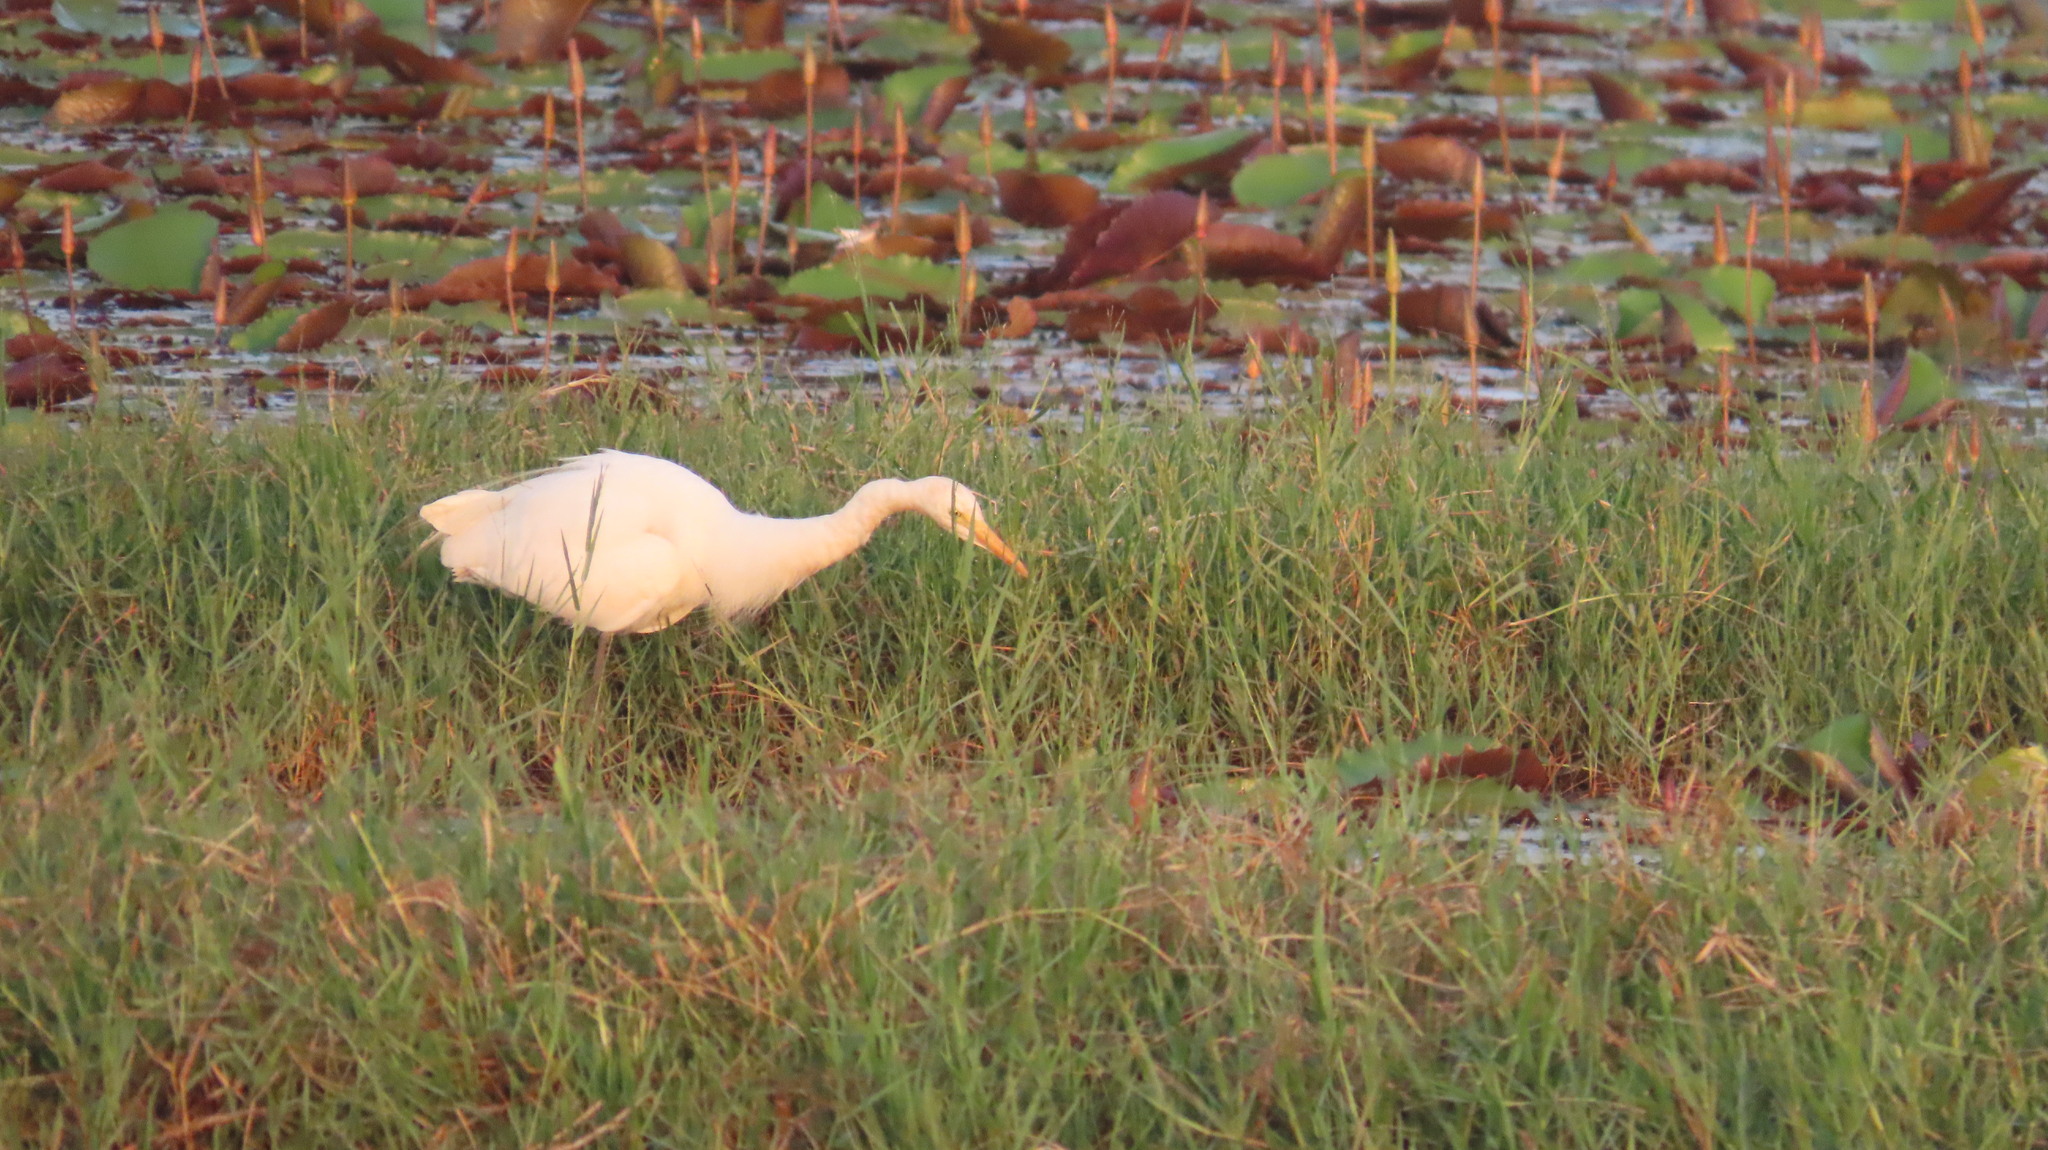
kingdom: Animalia
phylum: Chordata
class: Aves
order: Pelecaniformes
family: Ardeidae
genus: Egretta
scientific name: Egretta intermedia
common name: Intermediate egret
